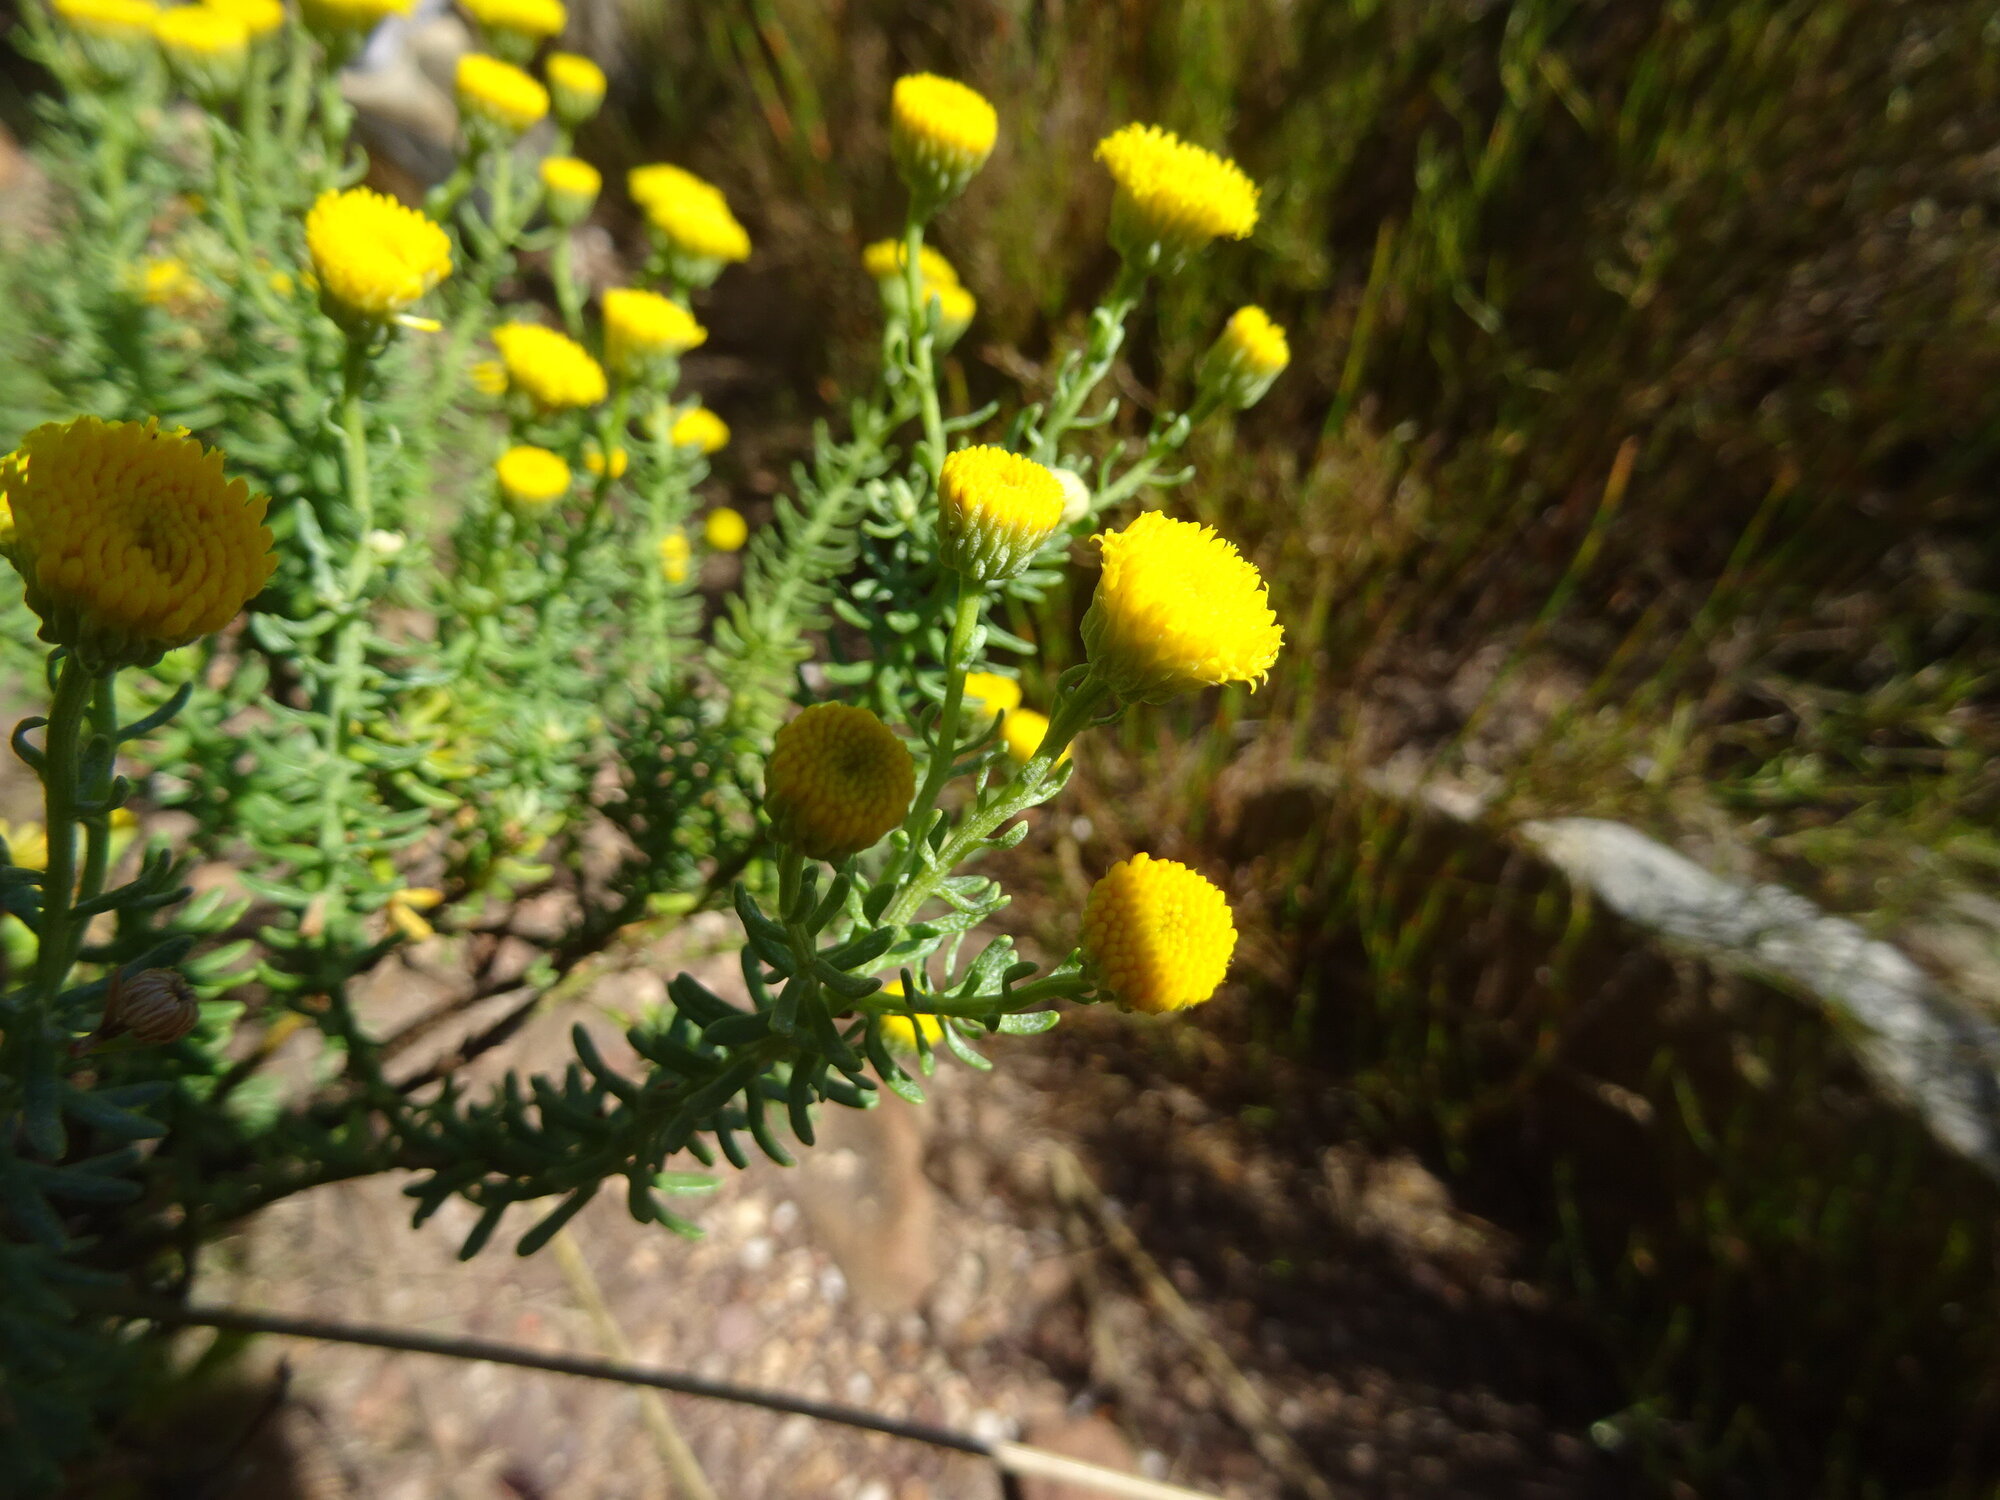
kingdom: Plantae
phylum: Tracheophyta
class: Magnoliopsida
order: Asterales
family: Asteraceae
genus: Chrysocoma
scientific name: Chrysocoma cernua
